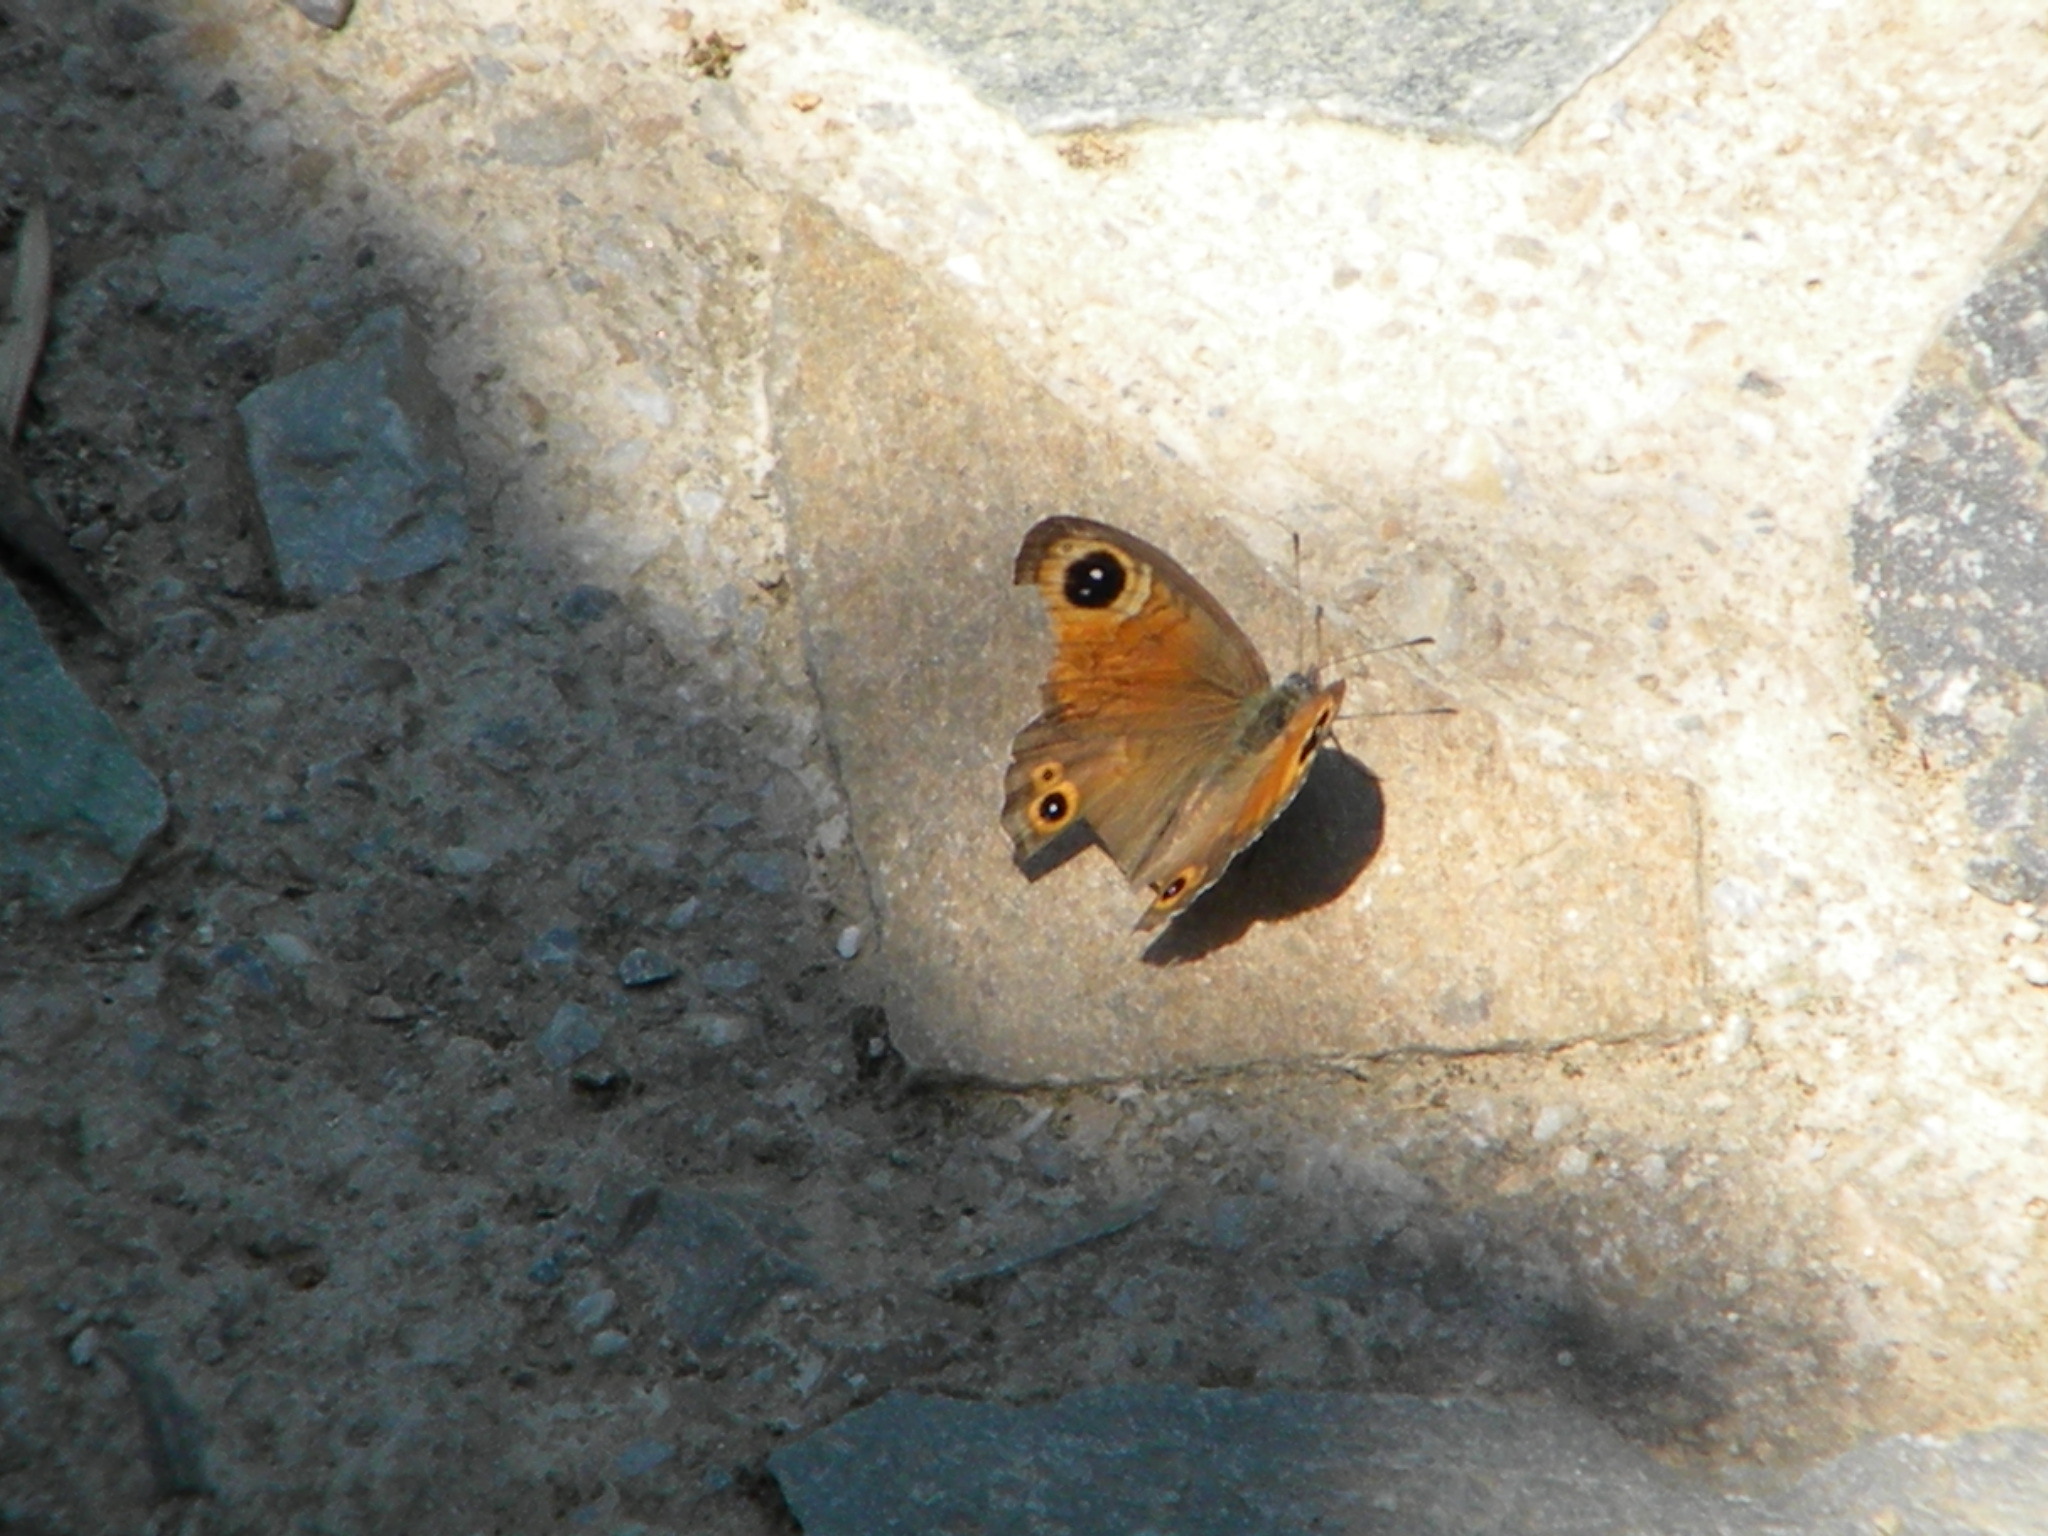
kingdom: Animalia
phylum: Arthropoda
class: Insecta
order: Lepidoptera
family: Nymphalidae
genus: Pararge
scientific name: Pararge Lasiommata maera
